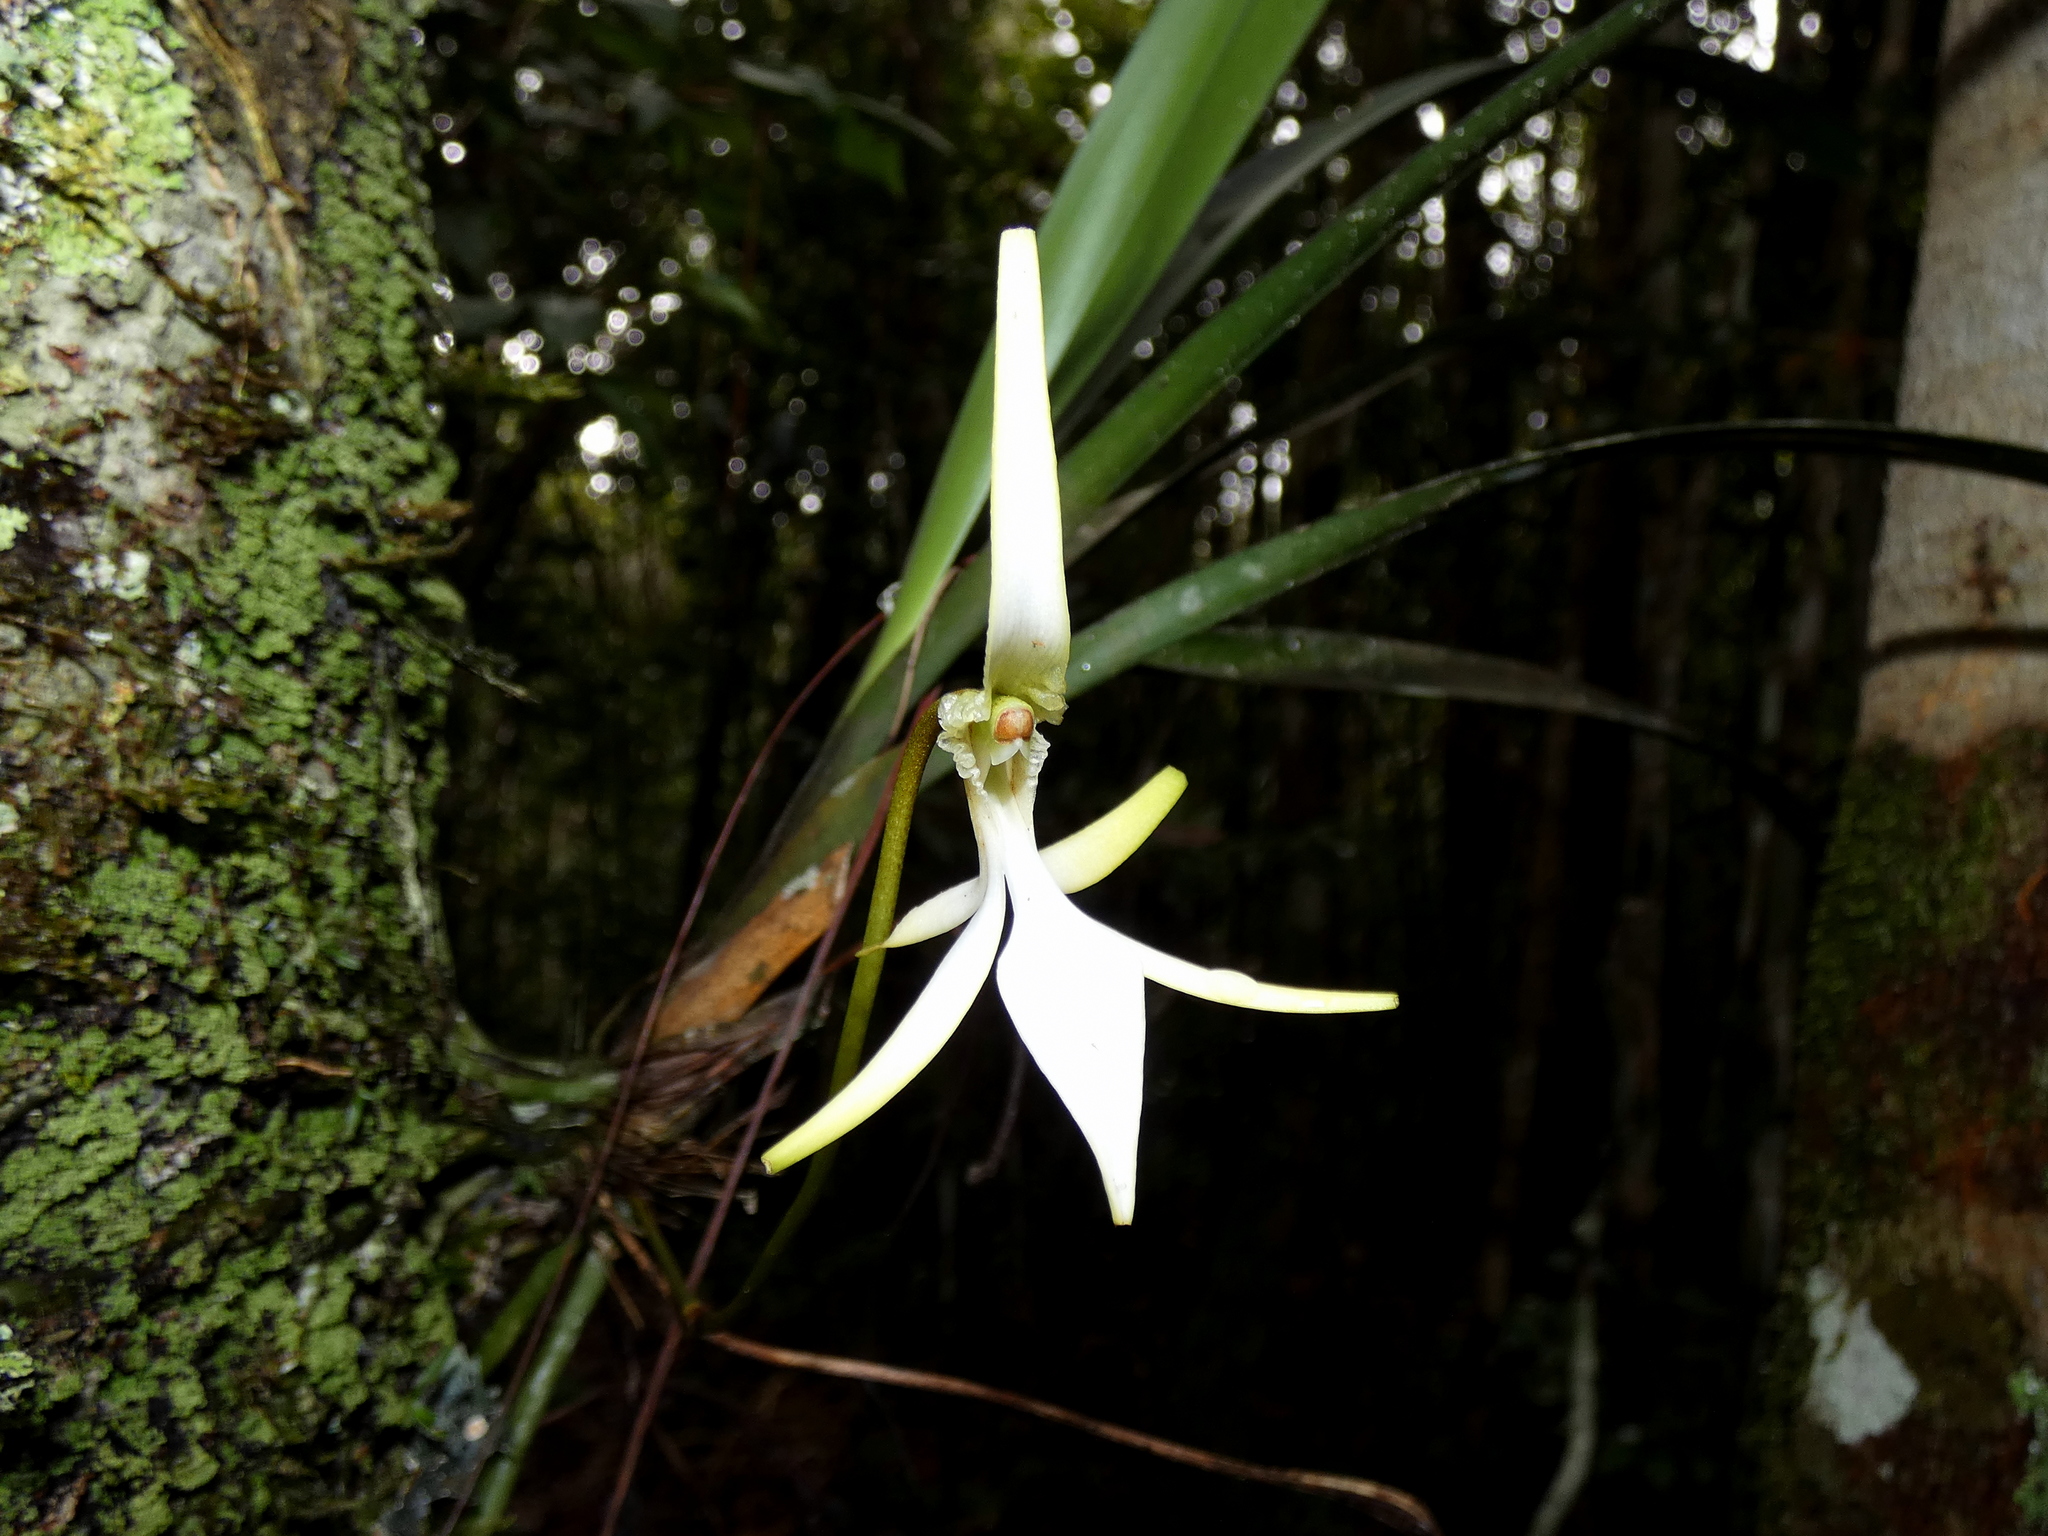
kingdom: Plantae
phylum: Tracheophyta
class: Liliopsida
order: Asparagales
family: Orchidaceae
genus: Jumellea
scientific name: Jumellea stenophylla
